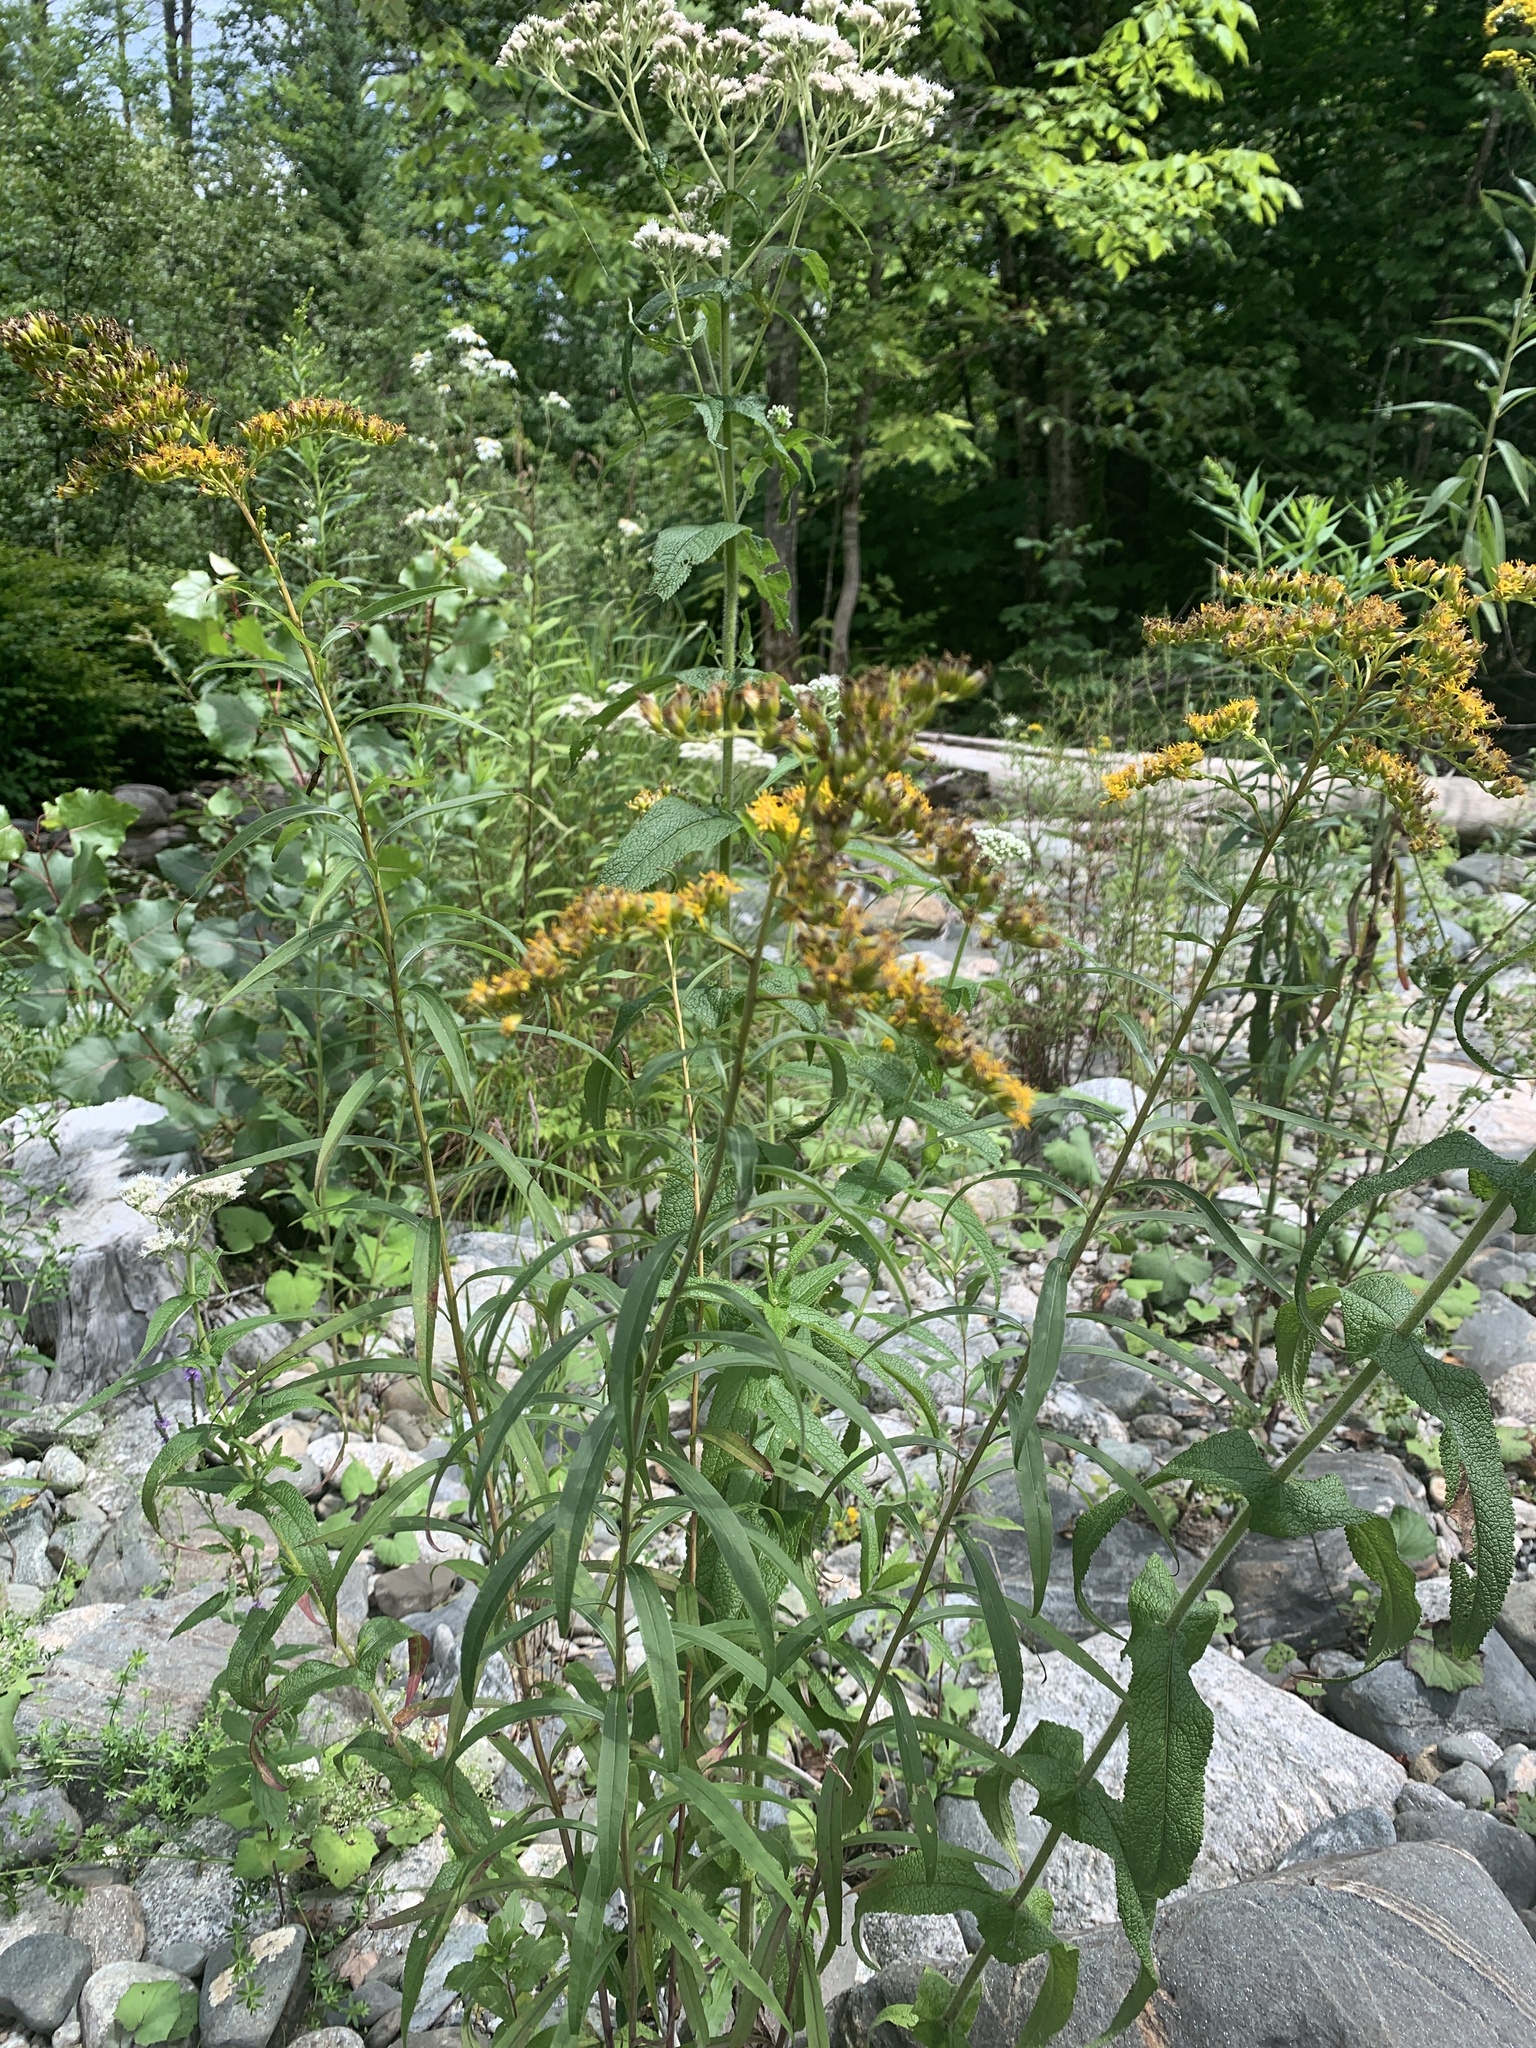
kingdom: Plantae
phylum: Tracheophyta
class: Magnoliopsida
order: Asterales
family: Asteraceae
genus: Solidago
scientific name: Solidago gigantea
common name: Giant goldenrod
